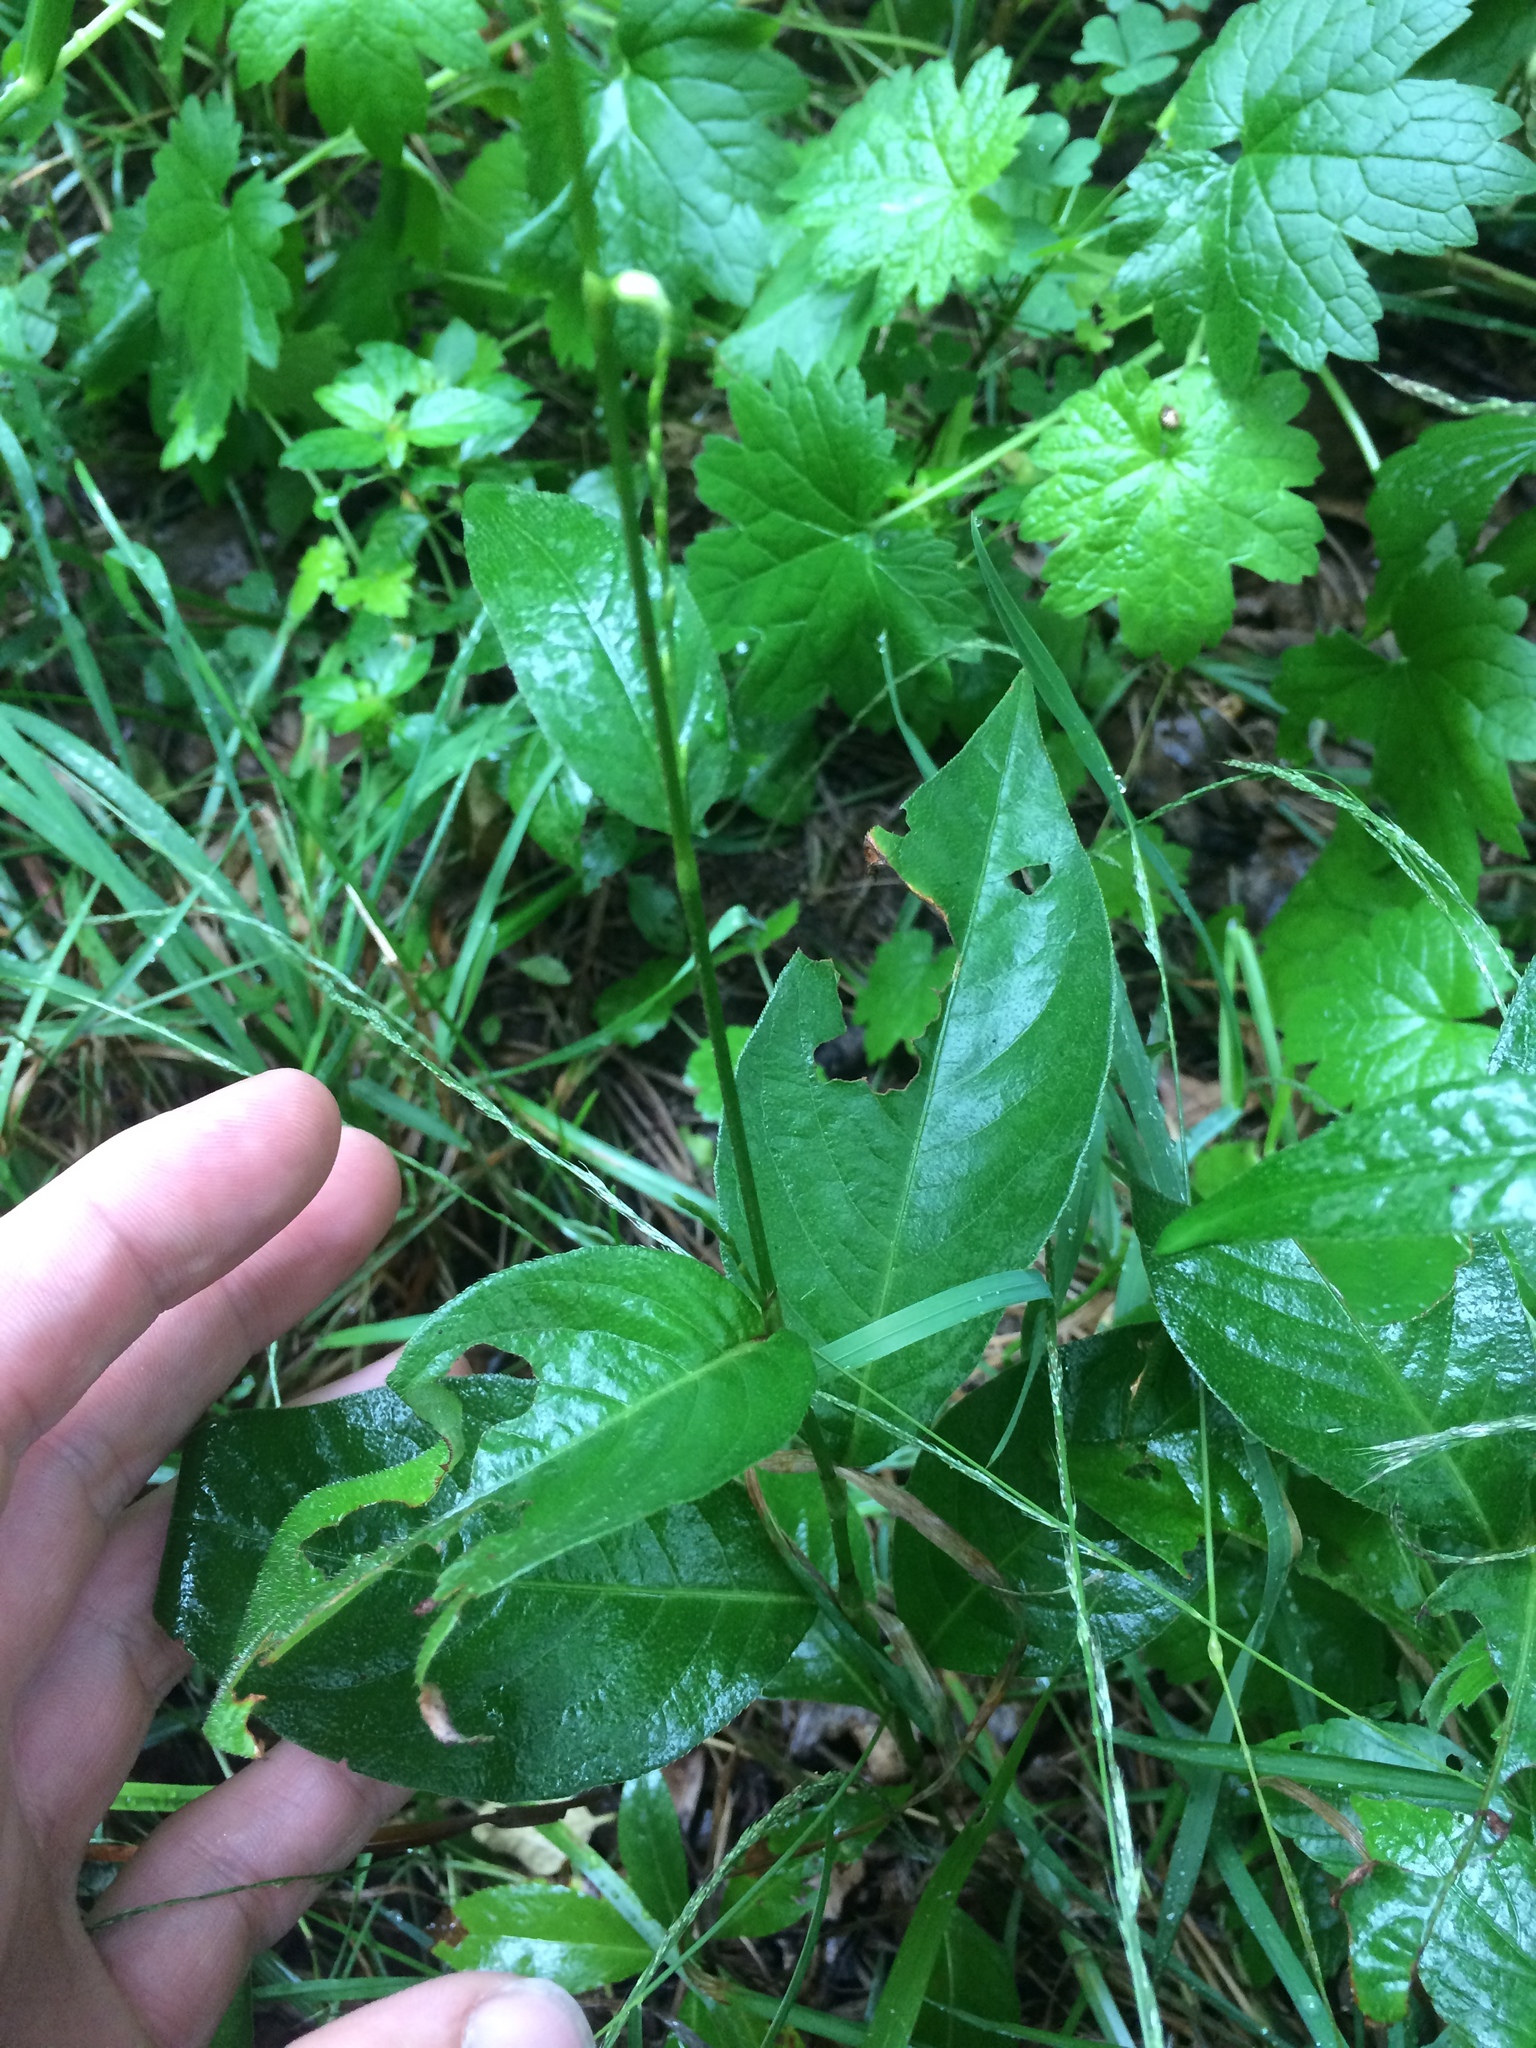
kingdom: Plantae
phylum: Tracheophyta
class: Magnoliopsida
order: Caryophyllales
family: Polygonaceae
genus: Persicaria
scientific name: Persicaria virginiana
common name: Jumpseed
